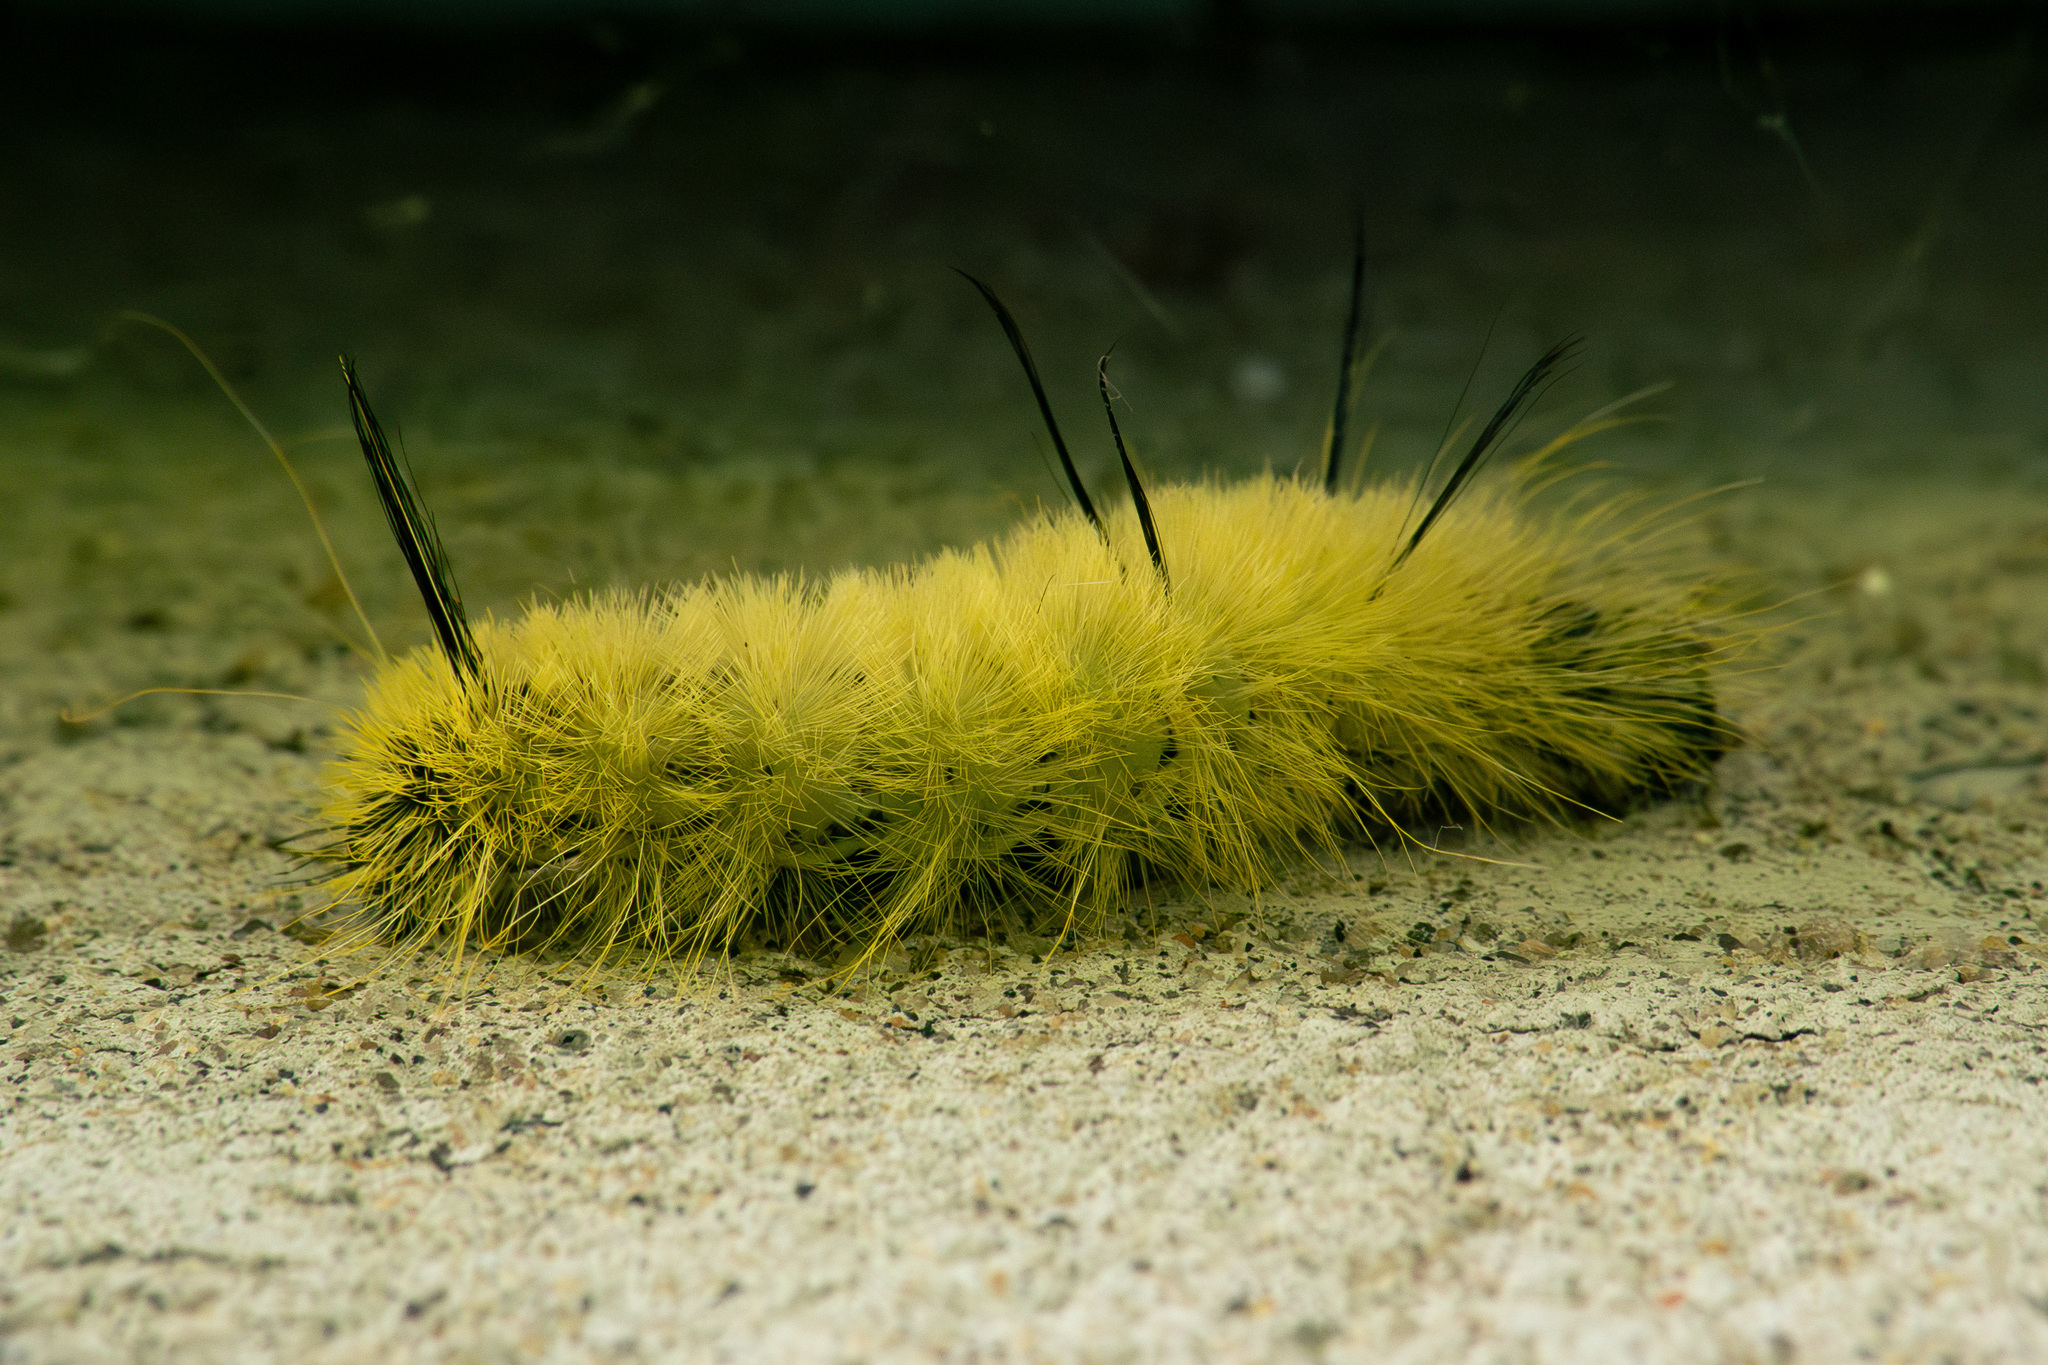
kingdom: Animalia
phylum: Arthropoda
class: Insecta
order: Lepidoptera
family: Noctuidae
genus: Acronicta
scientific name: Acronicta americana
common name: American dagger
